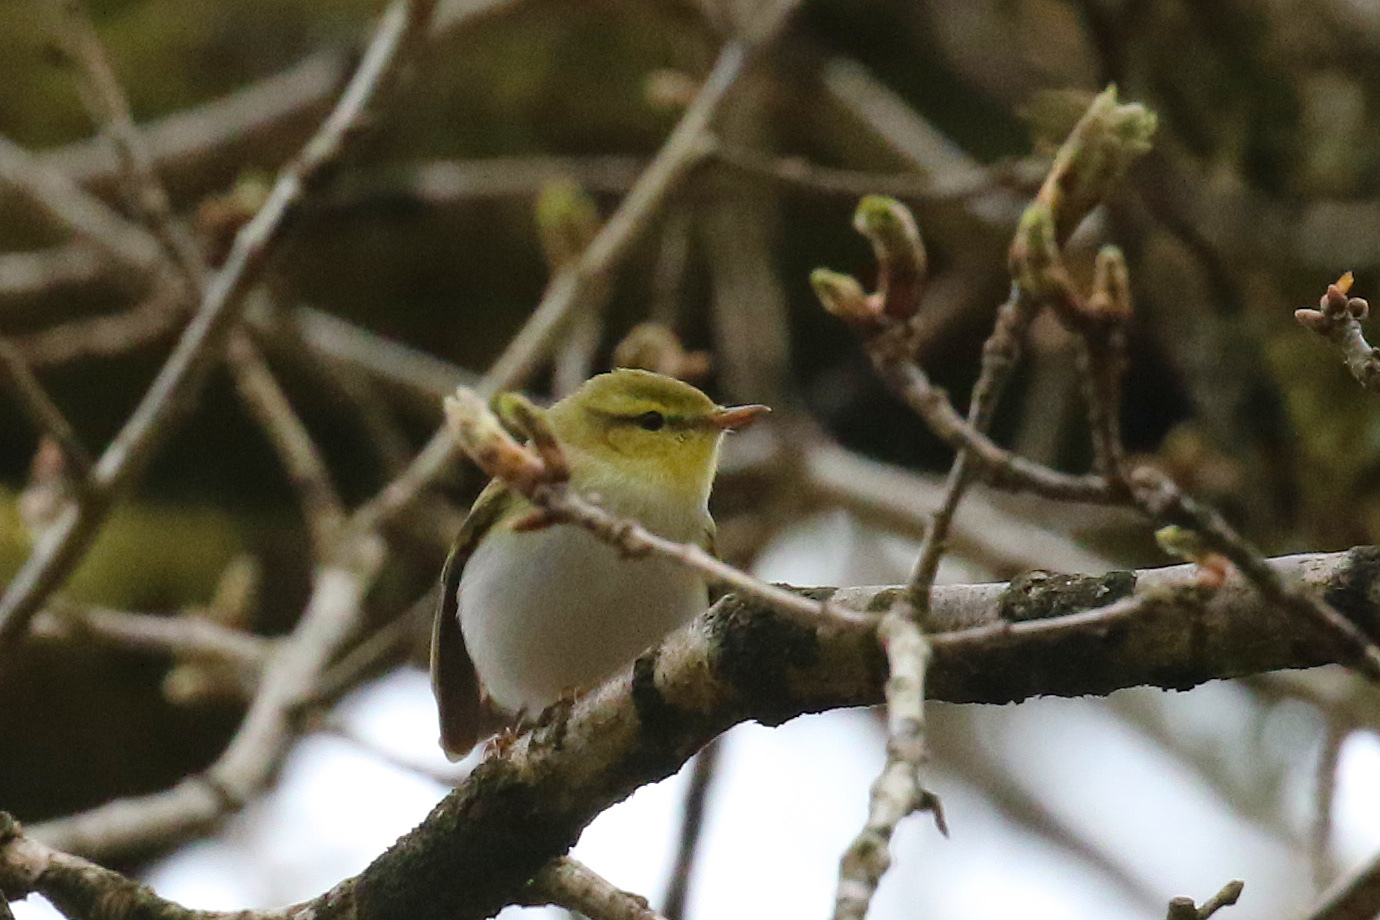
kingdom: Animalia
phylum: Chordata
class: Aves
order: Passeriformes
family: Phylloscopidae
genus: Phylloscopus
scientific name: Phylloscopus sibillatrix
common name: Wood warbler
